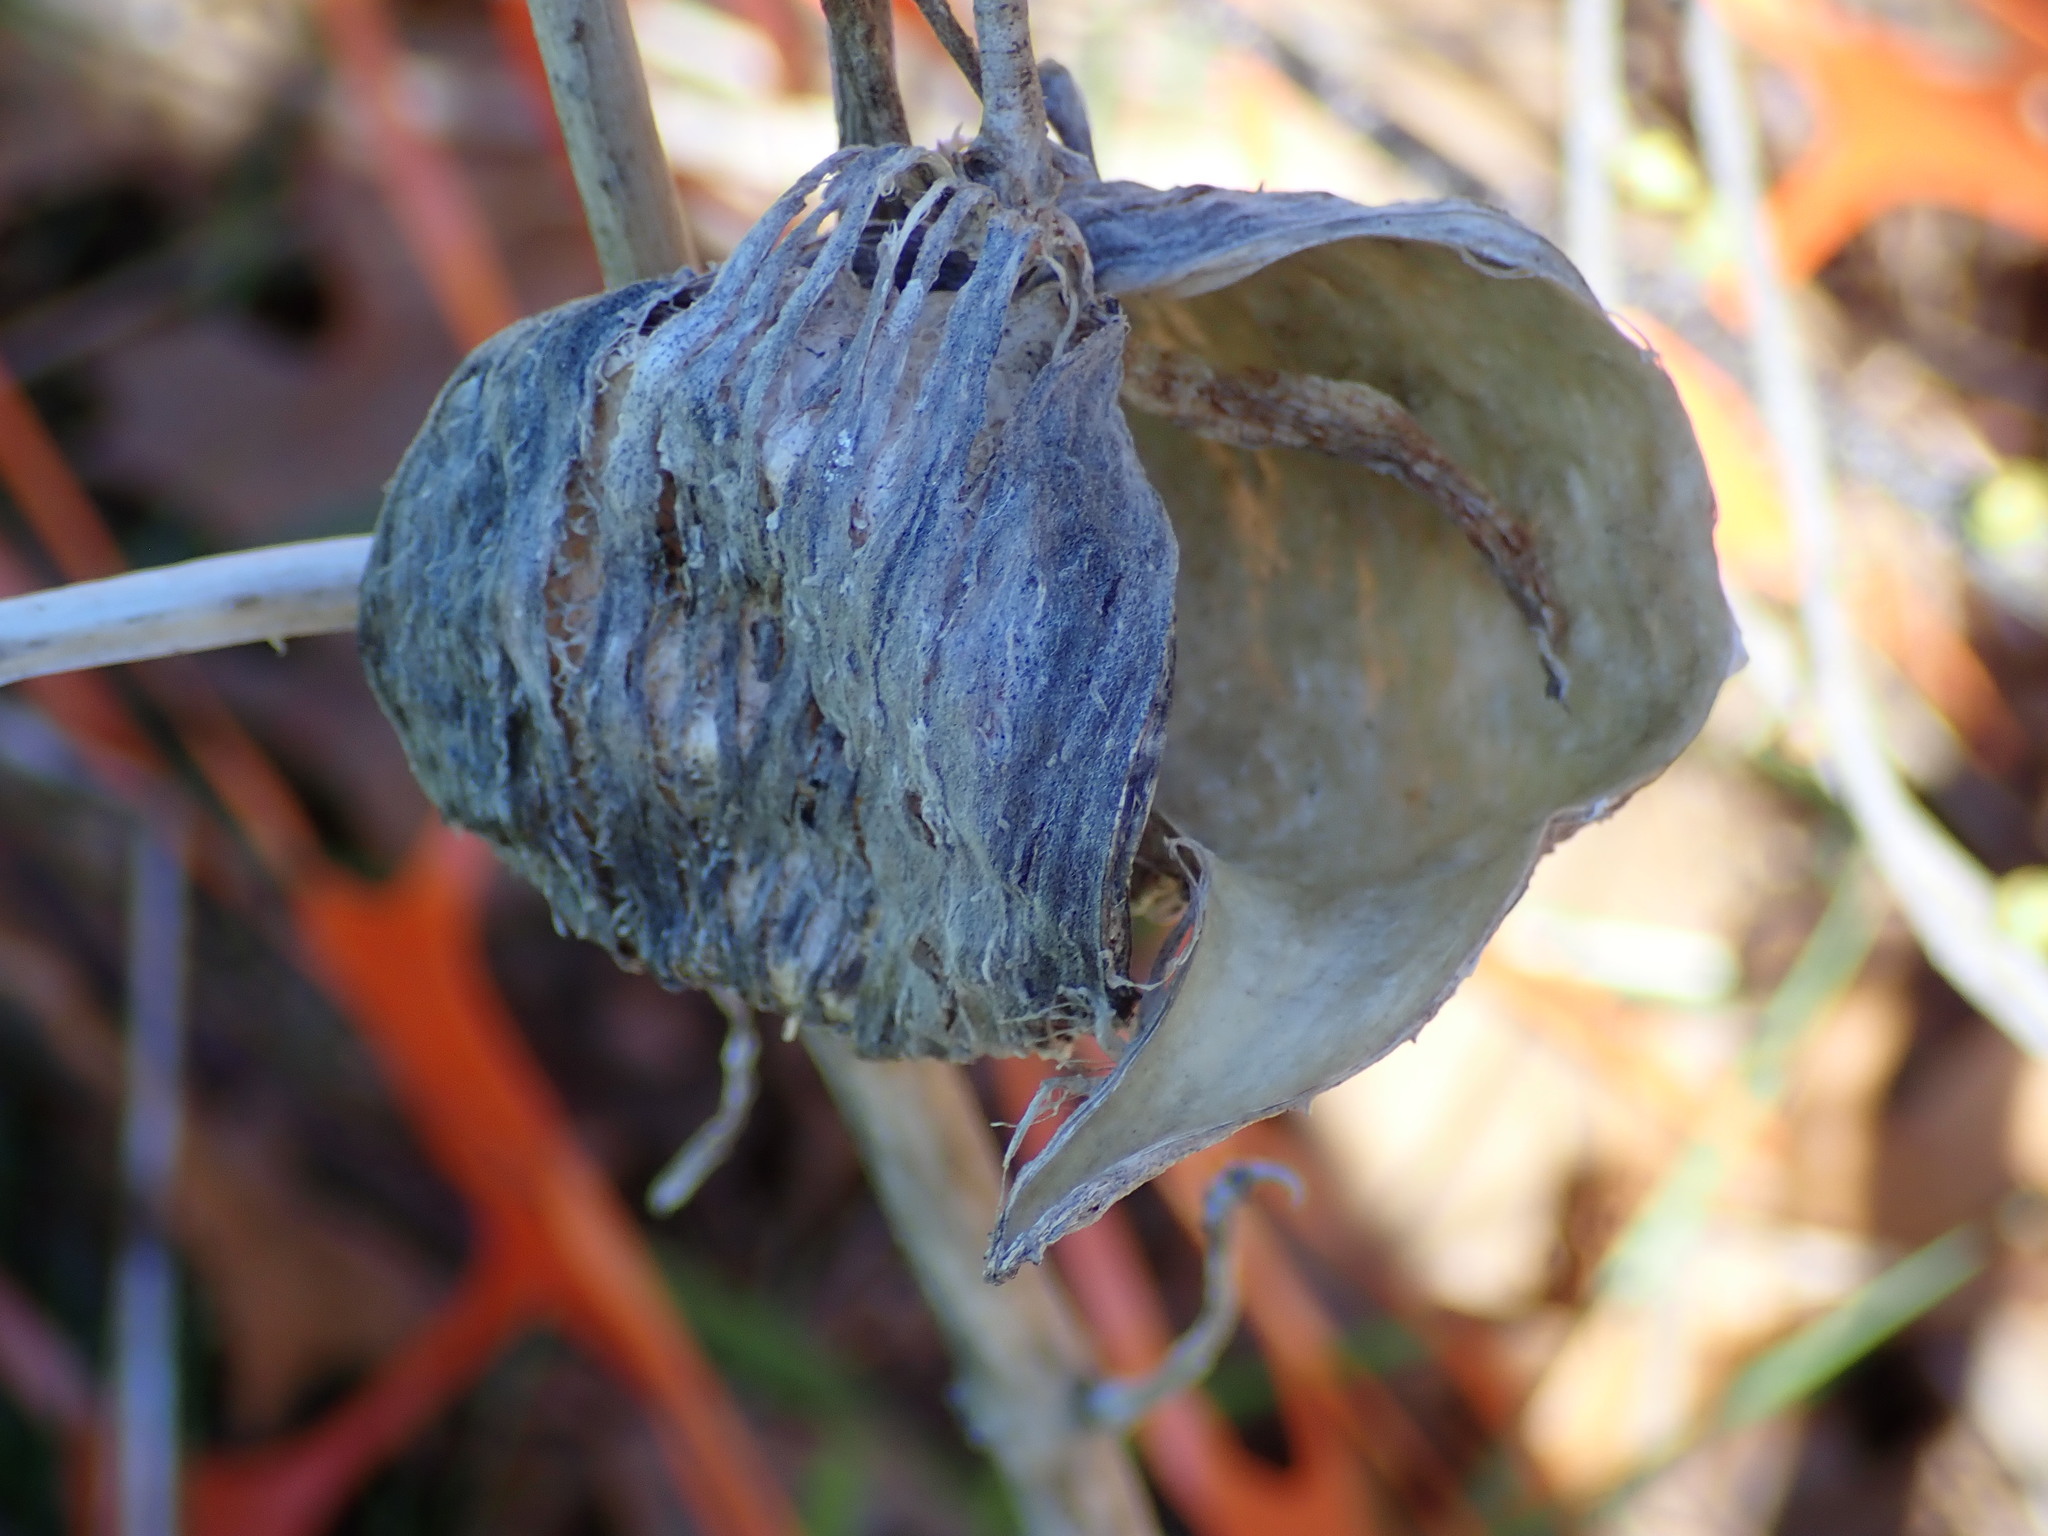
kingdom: Plantae
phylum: Tracheophyta
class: Magnoliopsida
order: Gentianales
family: Apocynaceae
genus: Asclepias
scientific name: Asclepias syriaca
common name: Common milkweed
